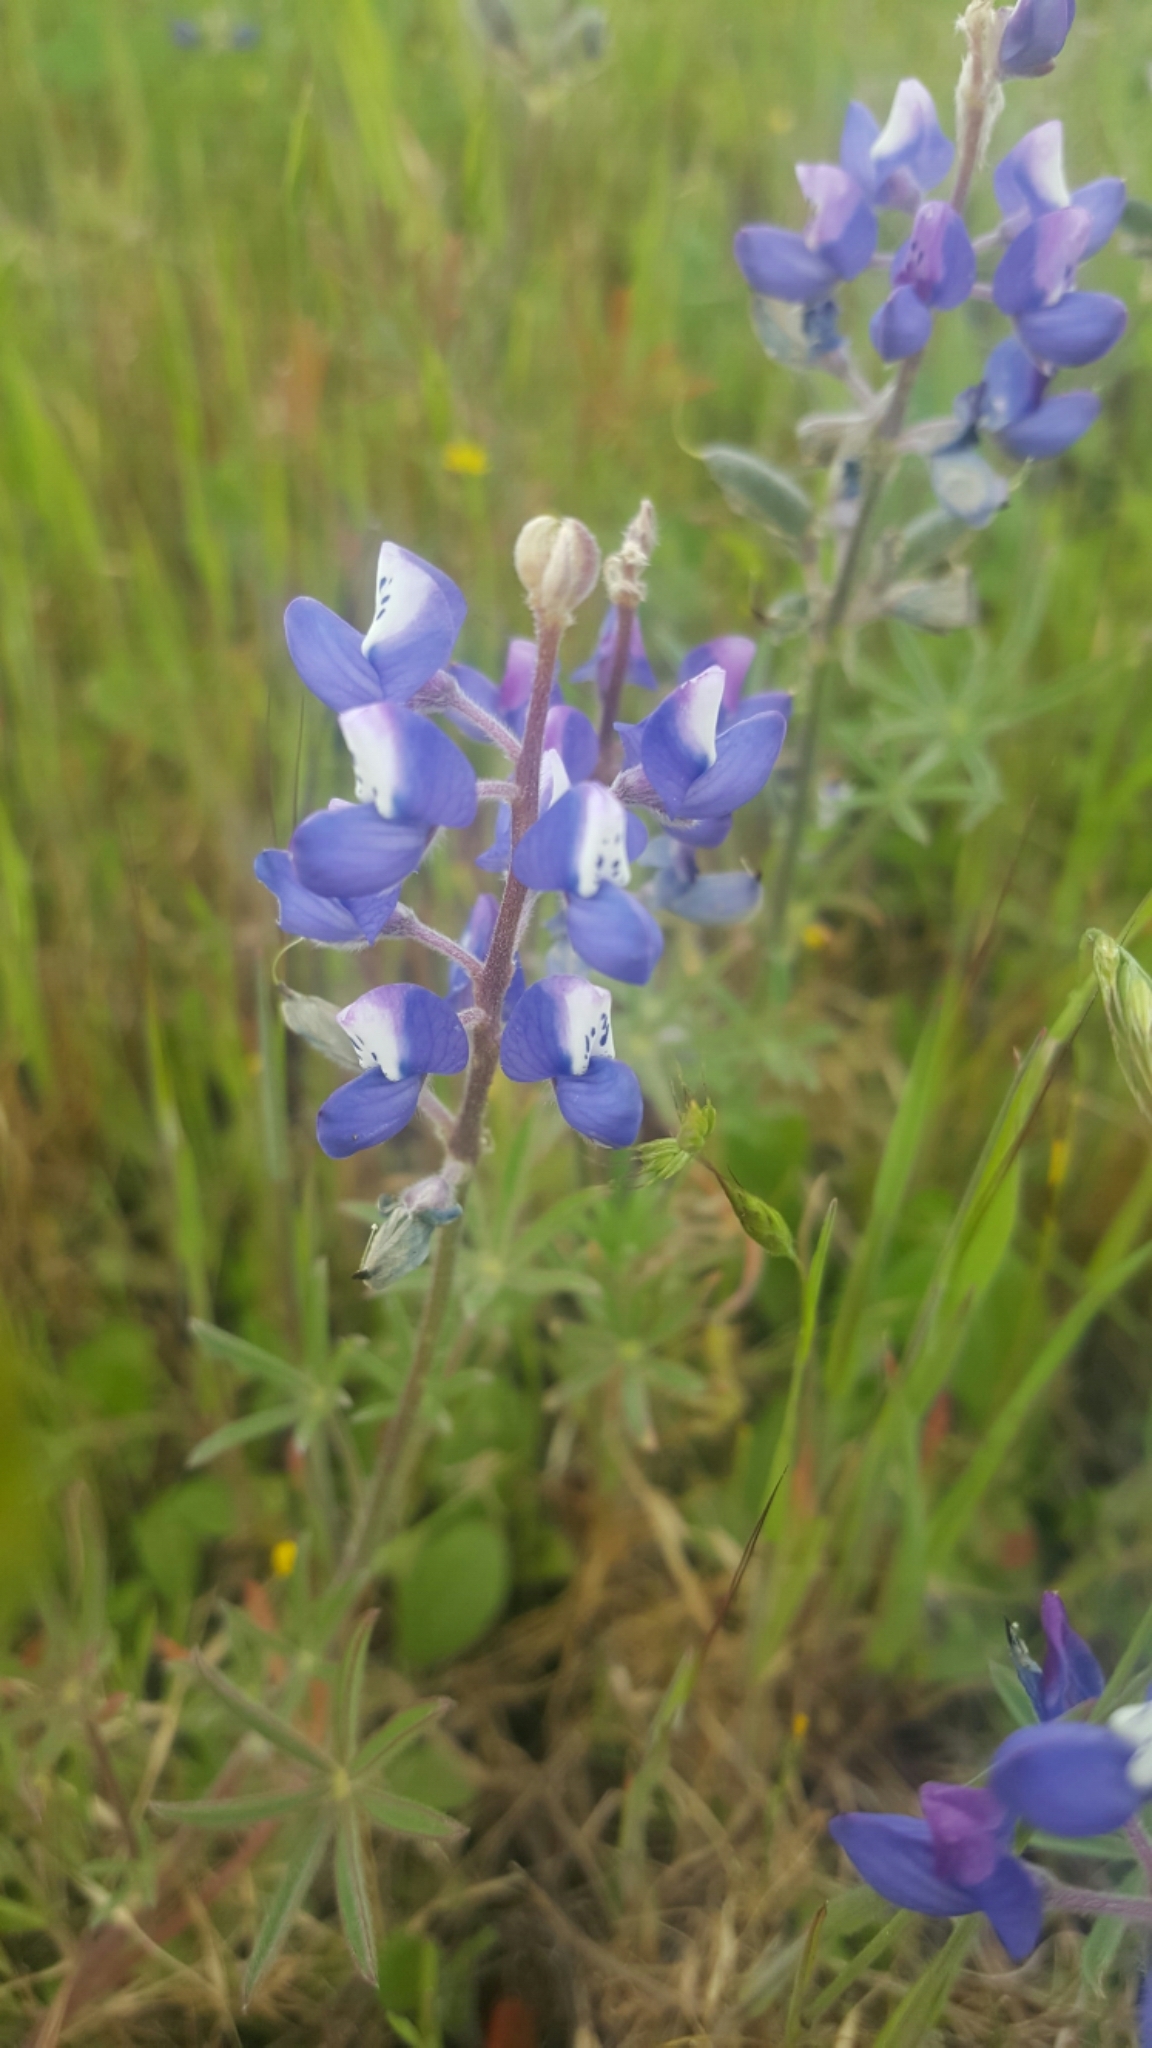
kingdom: Plantae
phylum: Tracheophyta
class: Magnoliopsida
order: Fabales
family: Fabaceae
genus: Lupinus
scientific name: Lupinus bicolor
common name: Miniature lupine
